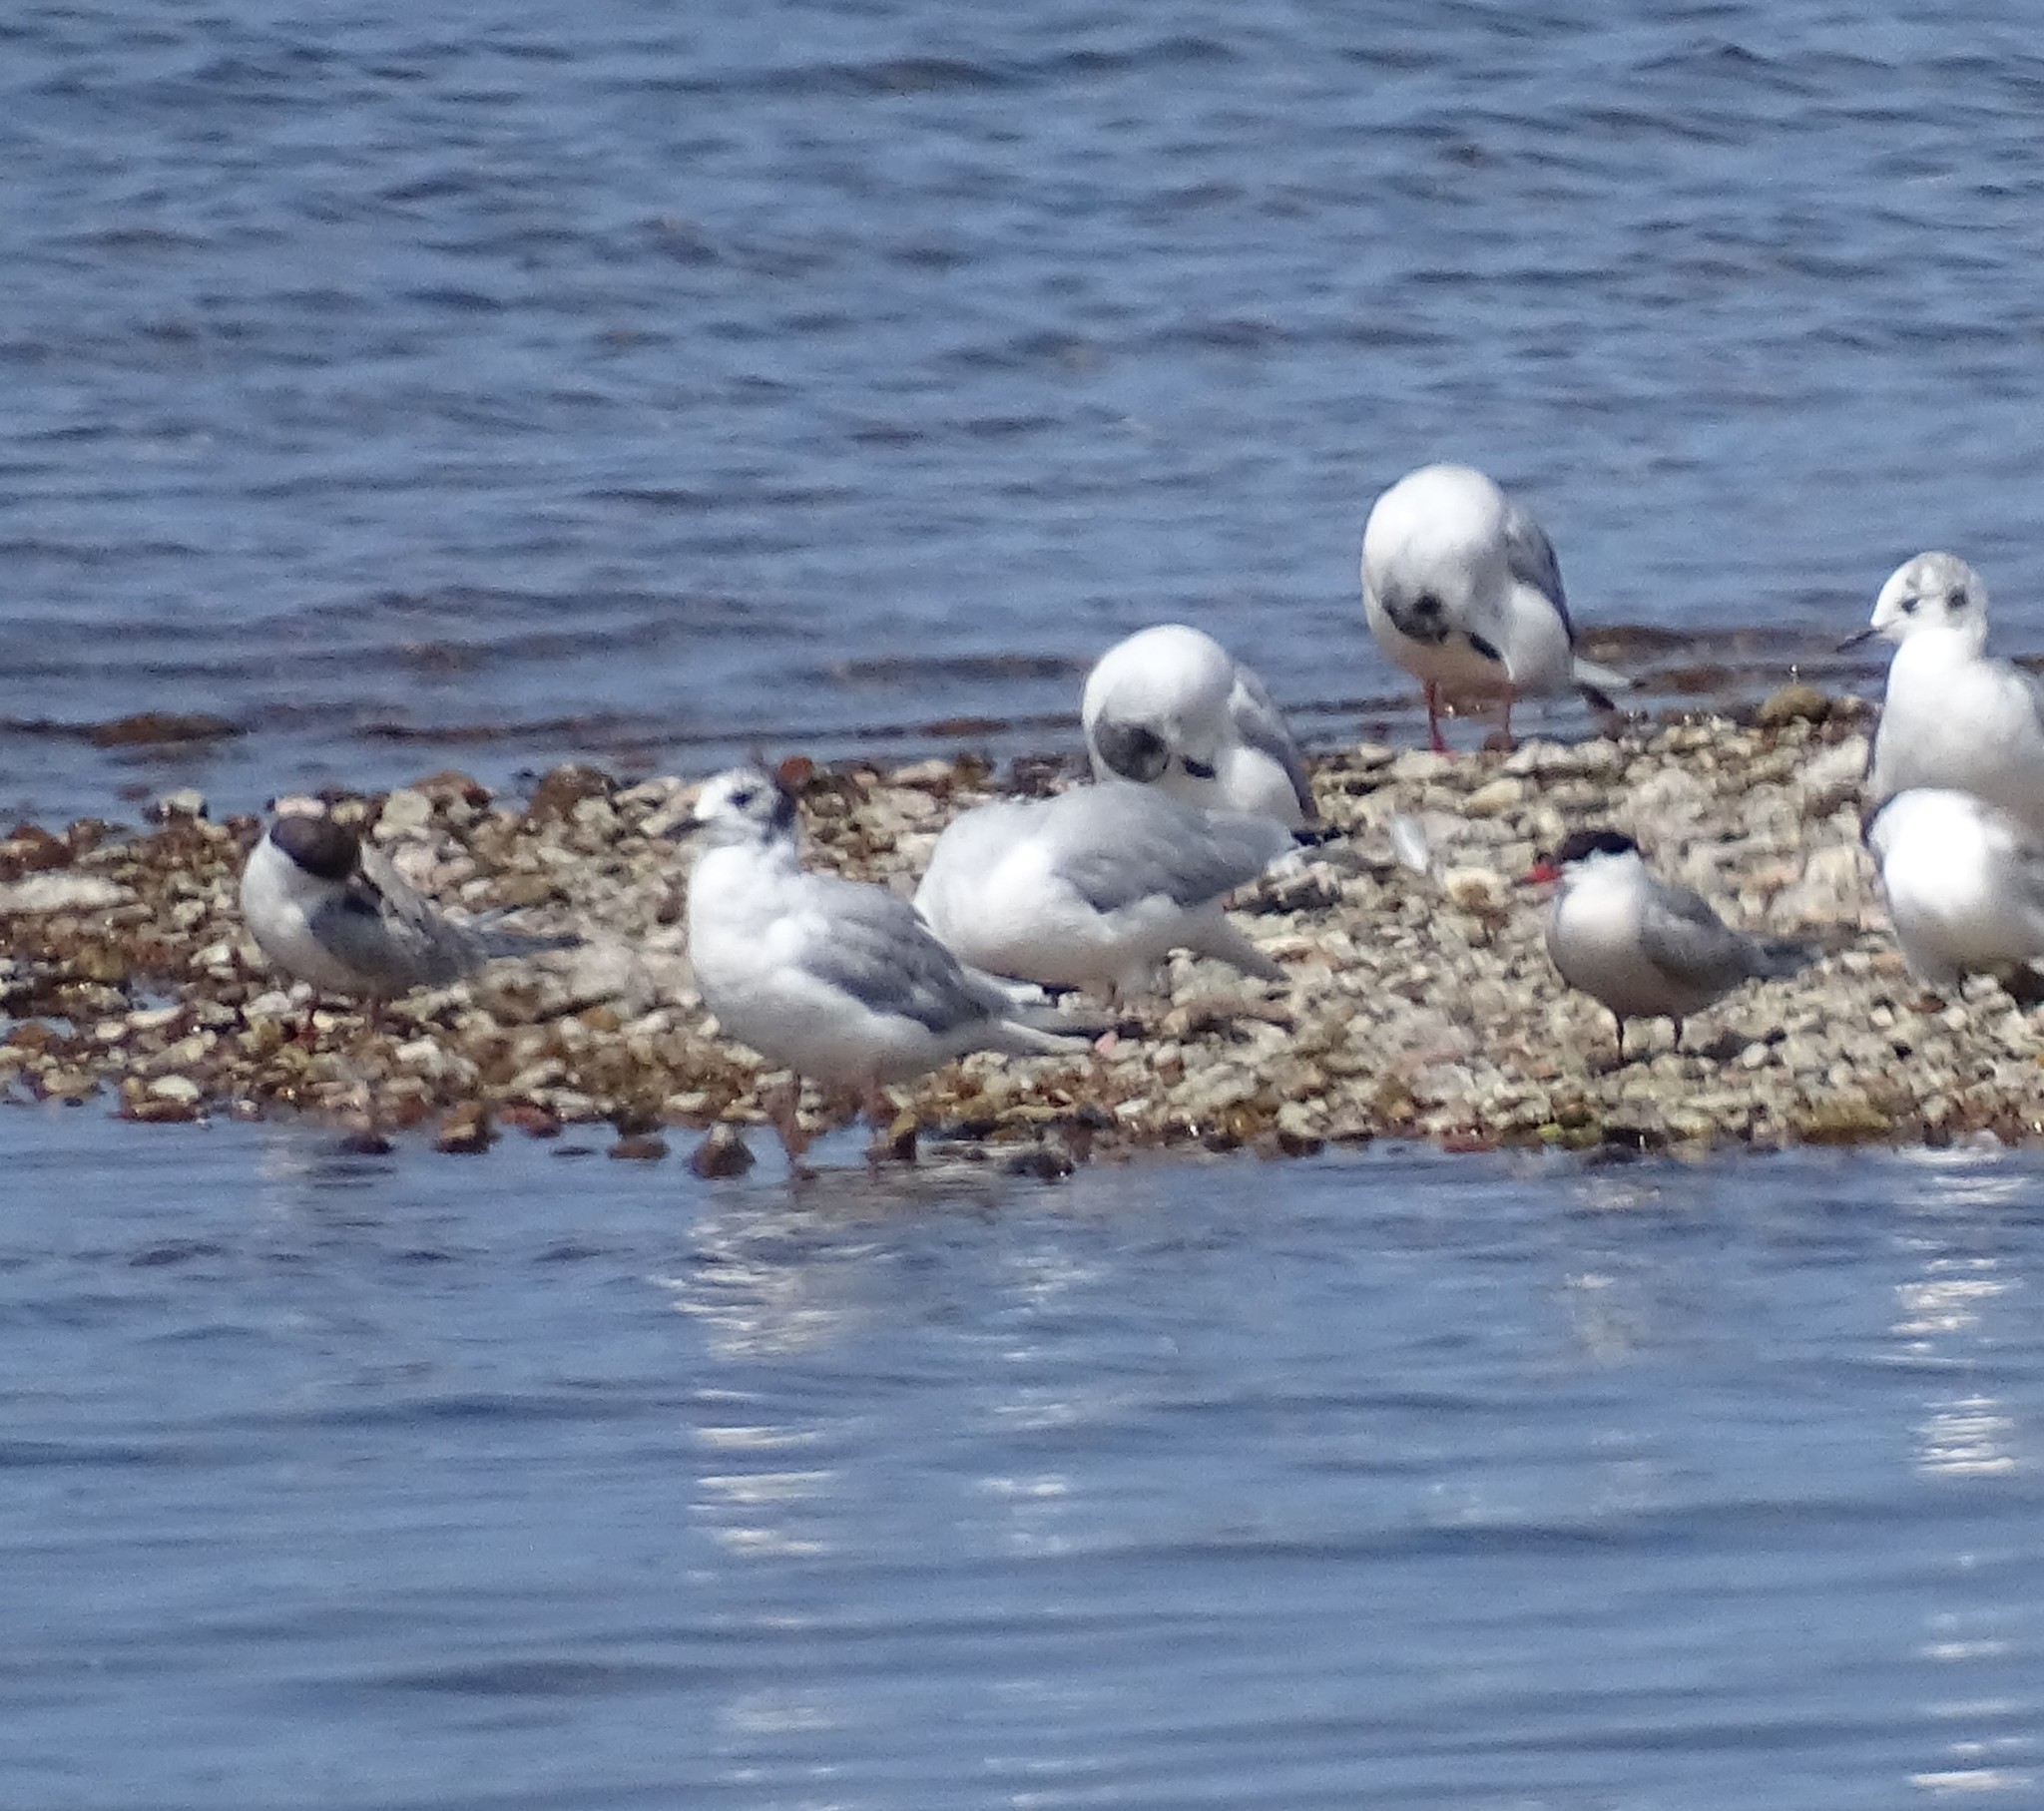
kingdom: Animalia
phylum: Chordata
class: Aves
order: Charadriiformes
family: Laridae
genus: Sterna
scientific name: Sterna hirundo
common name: Common tern
